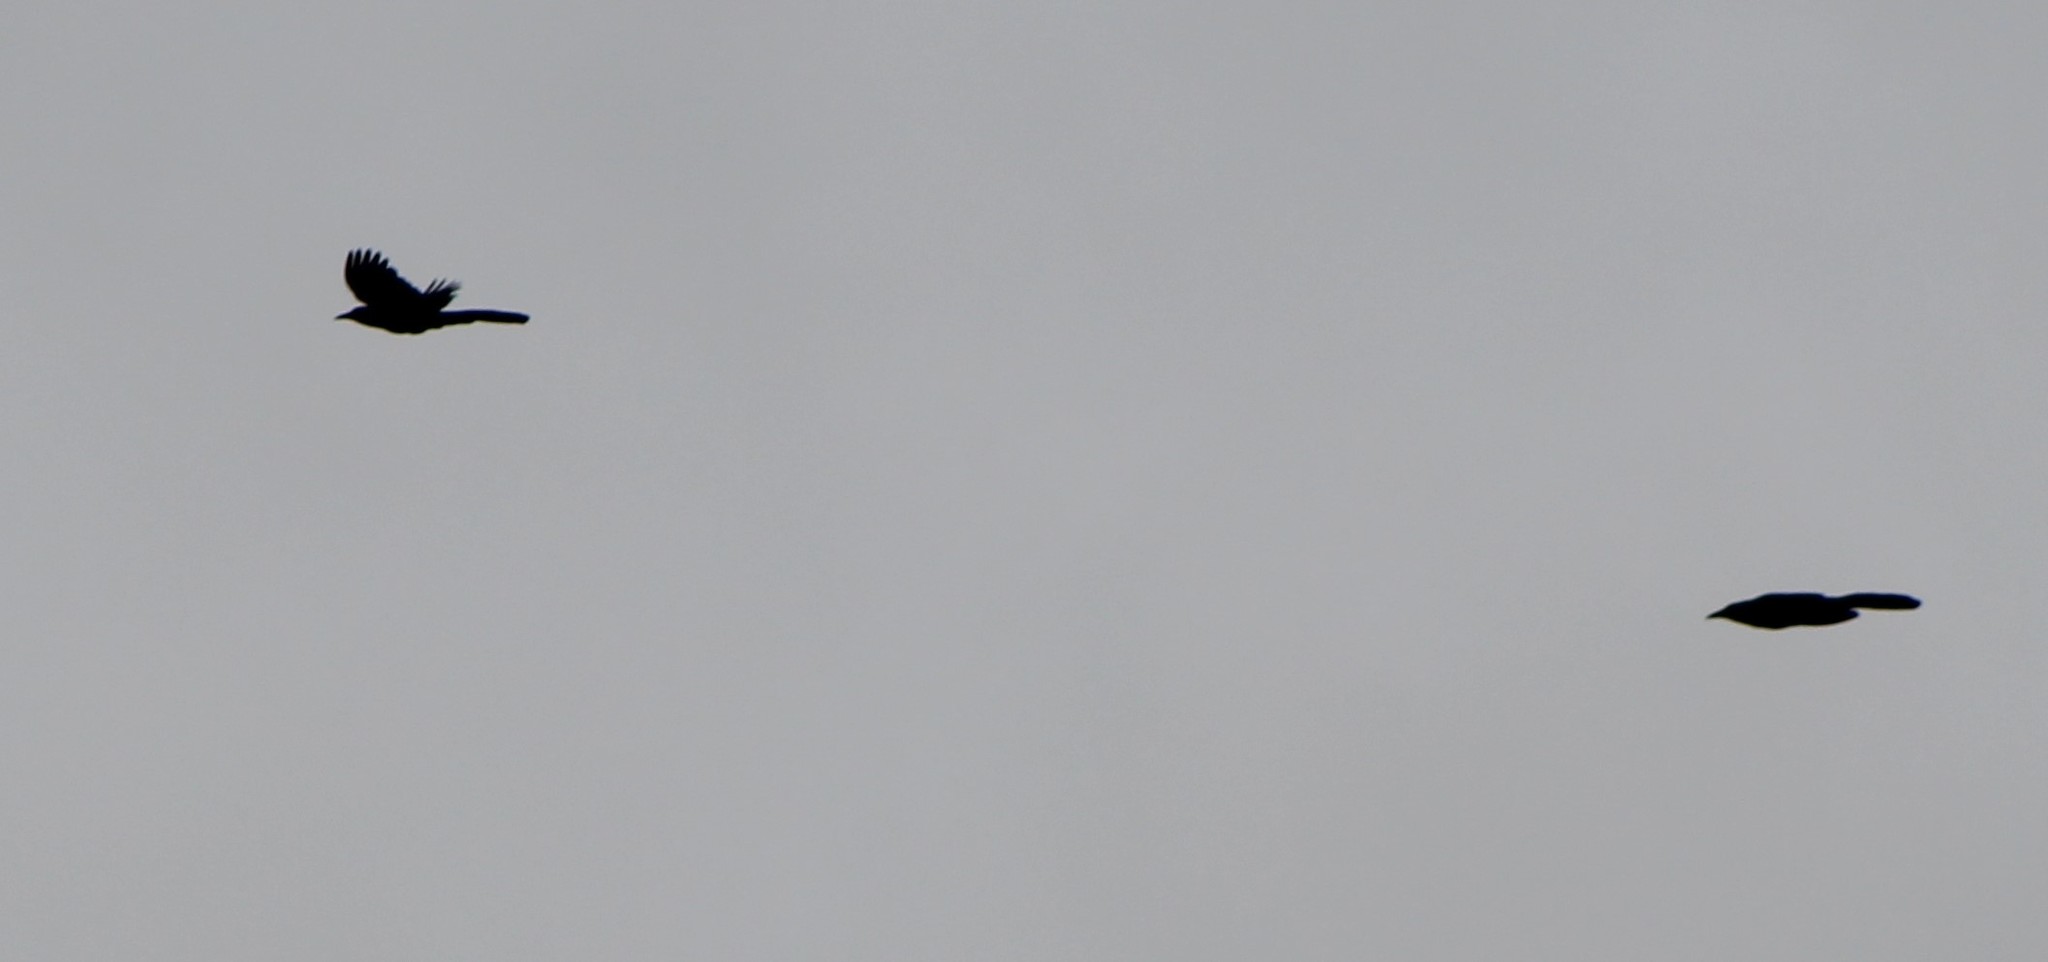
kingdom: Animalia
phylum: Chordata
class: Aves
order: Passeriformes
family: Icteridae
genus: Quiscalus
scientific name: Quiscalus mexicanus
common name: Great-tailed grackle
